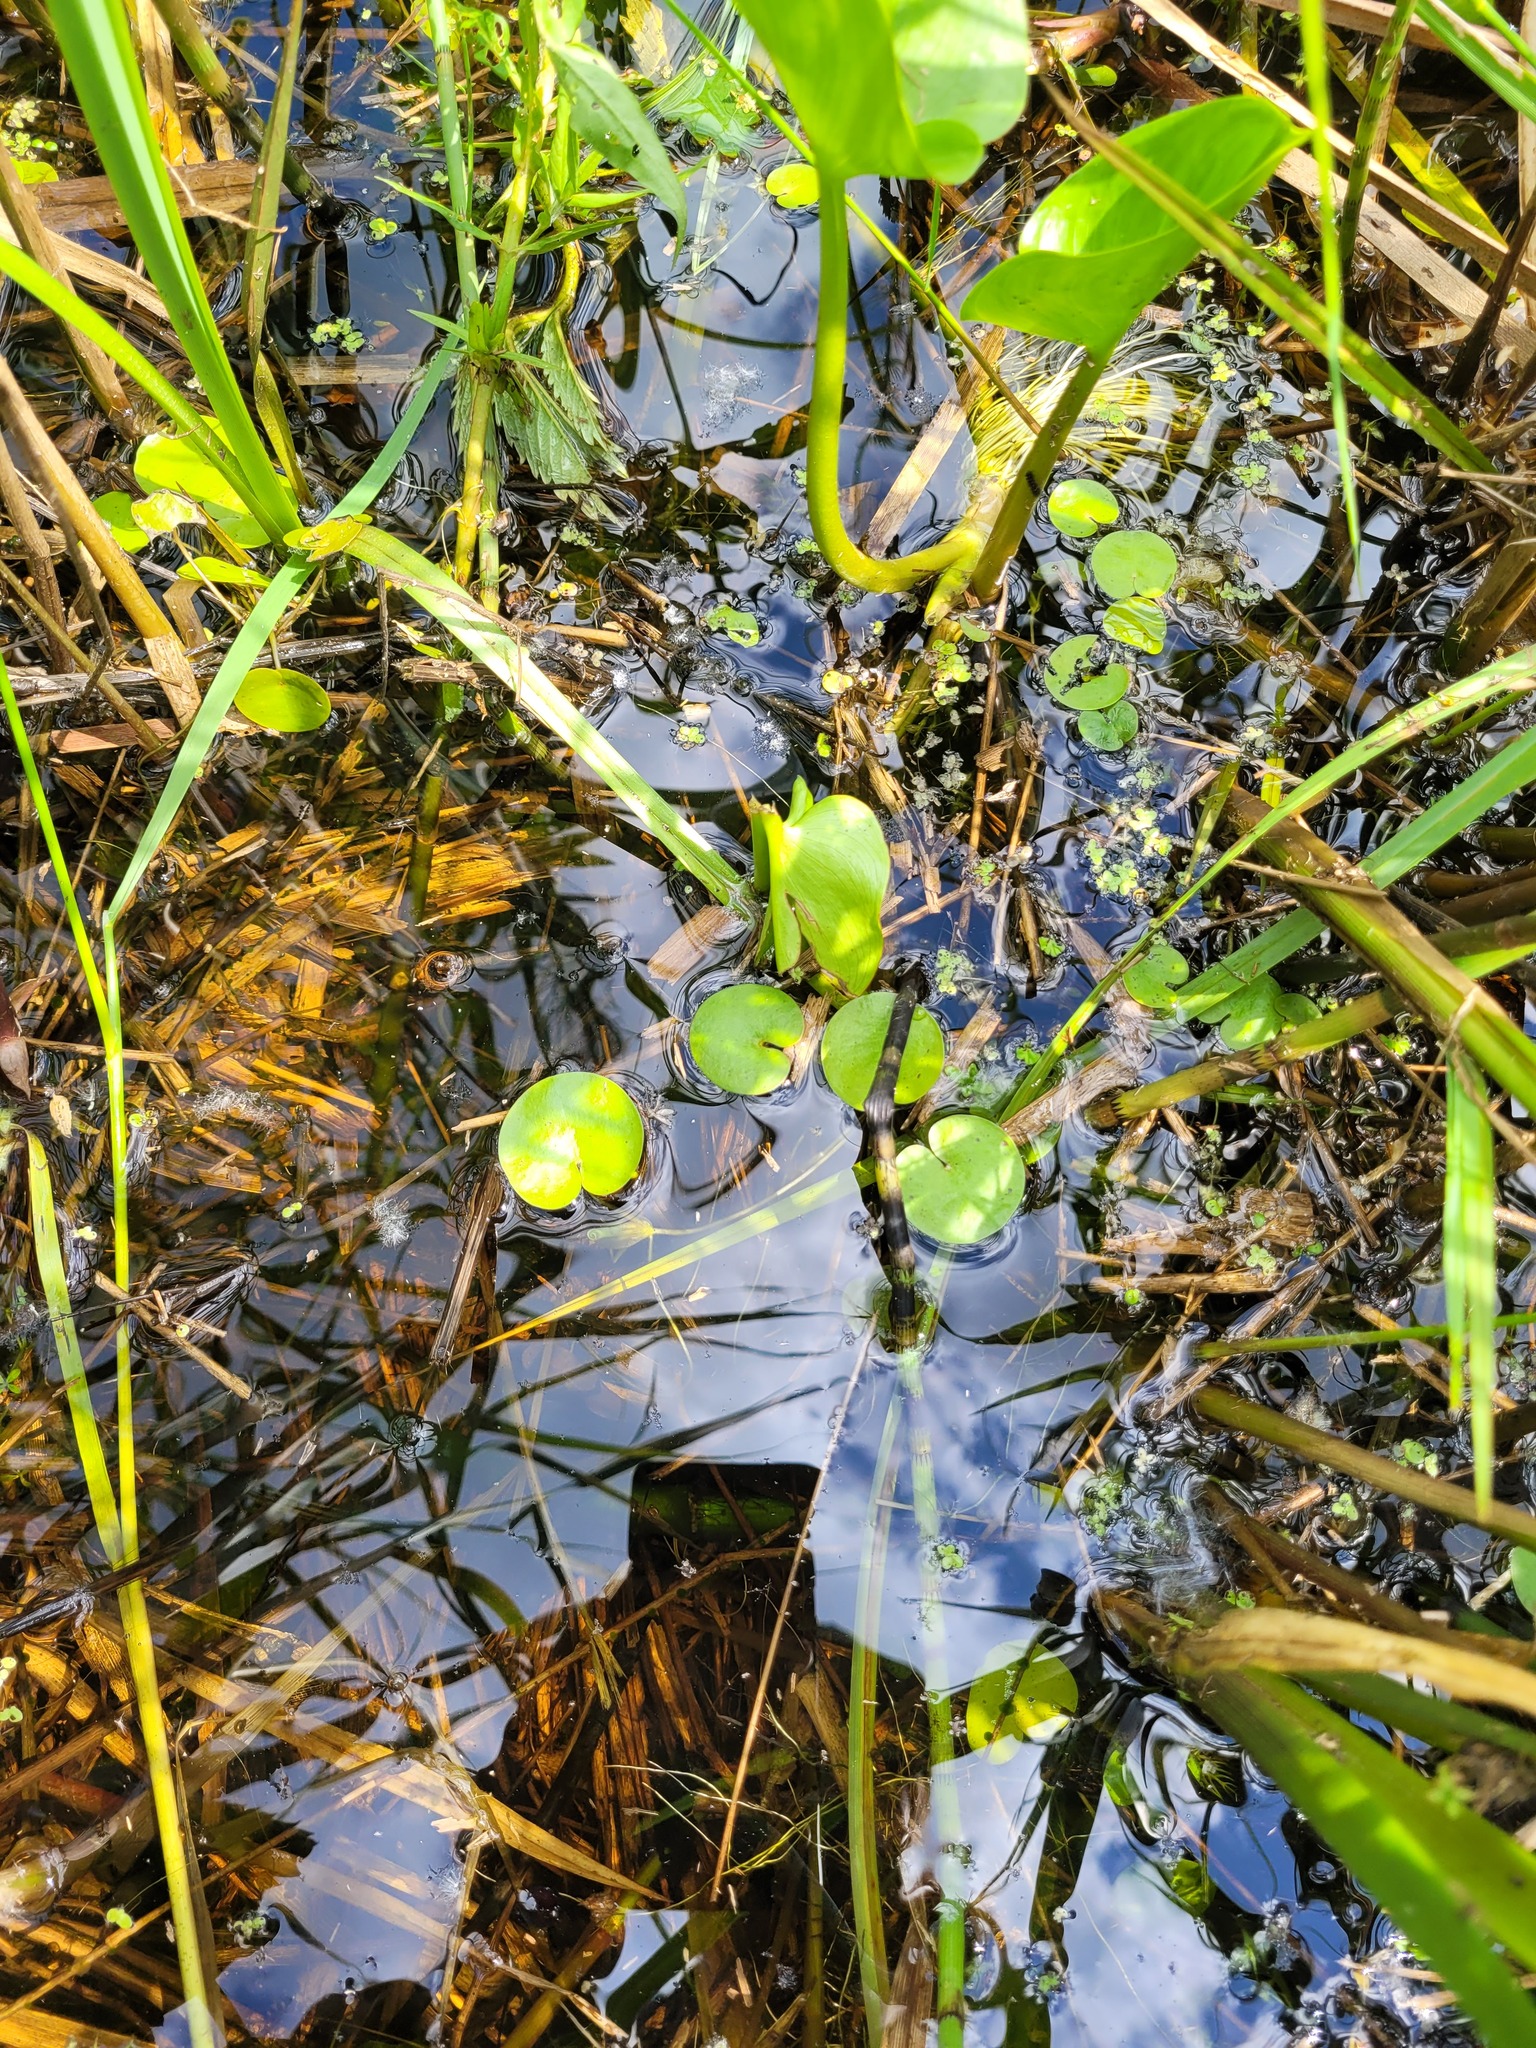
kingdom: Plantae
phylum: Tracheophyta
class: Liliopsida
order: Alismatales
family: Hydrocharitaceae
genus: Hydrocharis
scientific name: Hydrocharis morsus-ranae
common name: Frogbit
